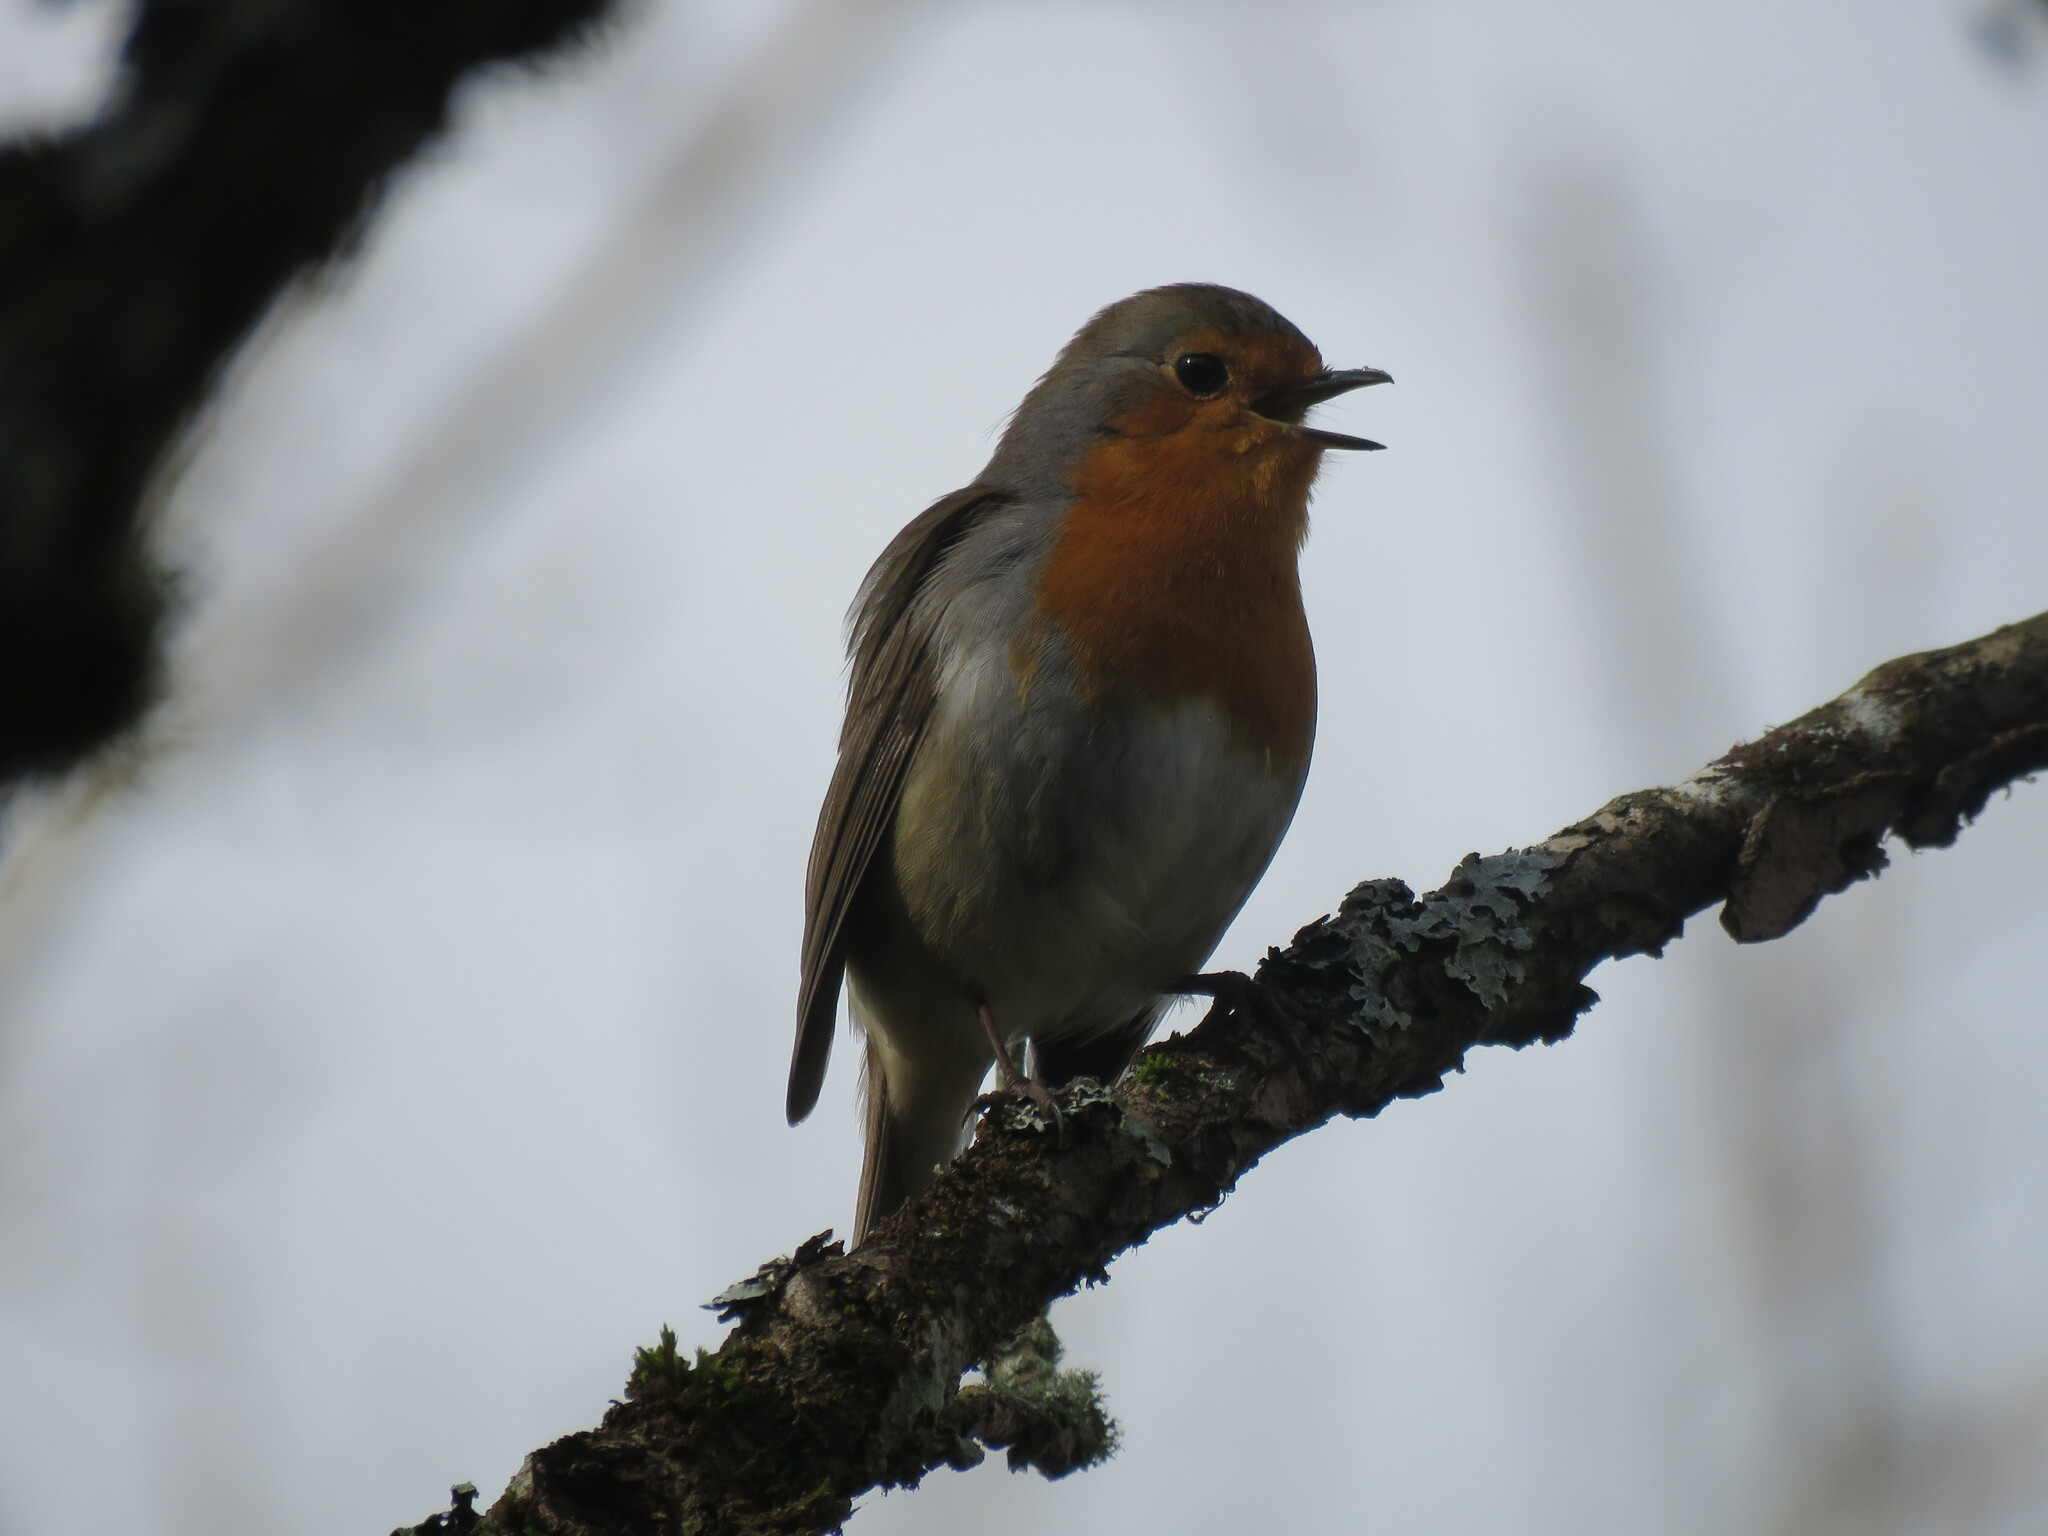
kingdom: Animalia
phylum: Chordata
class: Aves
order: Passeriformes
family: Muscicapidae
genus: Erithacus
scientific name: Erithacus rubecula
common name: European robin
